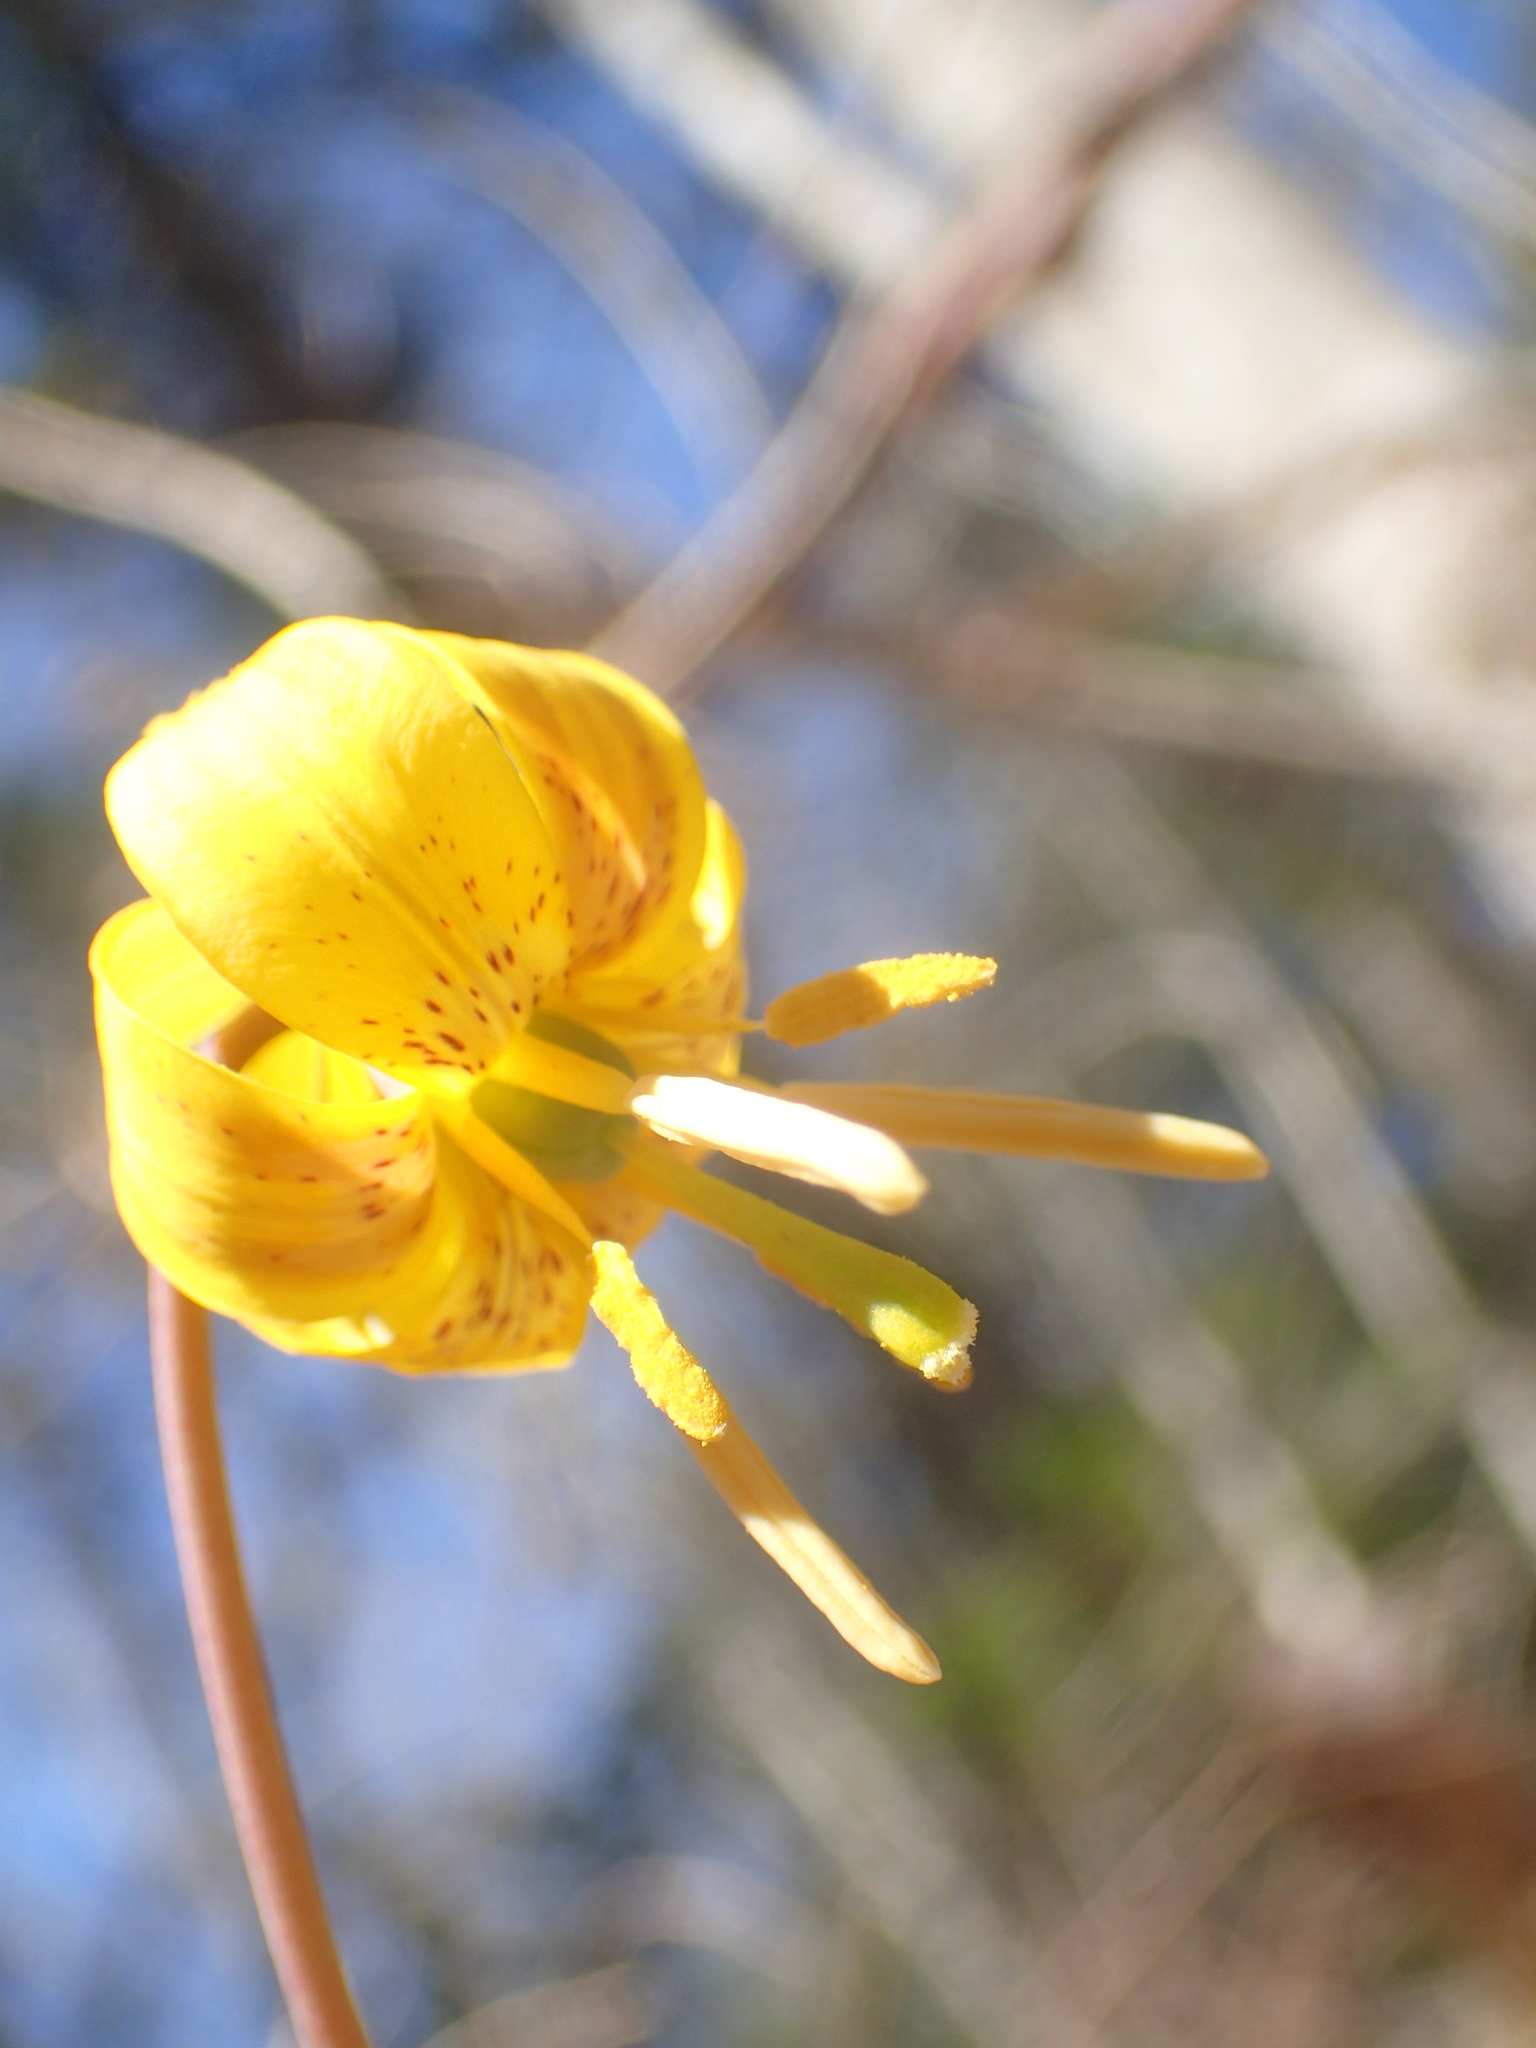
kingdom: Plantae
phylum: Tracheophyta
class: Liliopsida
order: Liliales
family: Liliaceae
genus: Erythronium
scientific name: Erythronium americanum
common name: Yellow adder's-tongue
